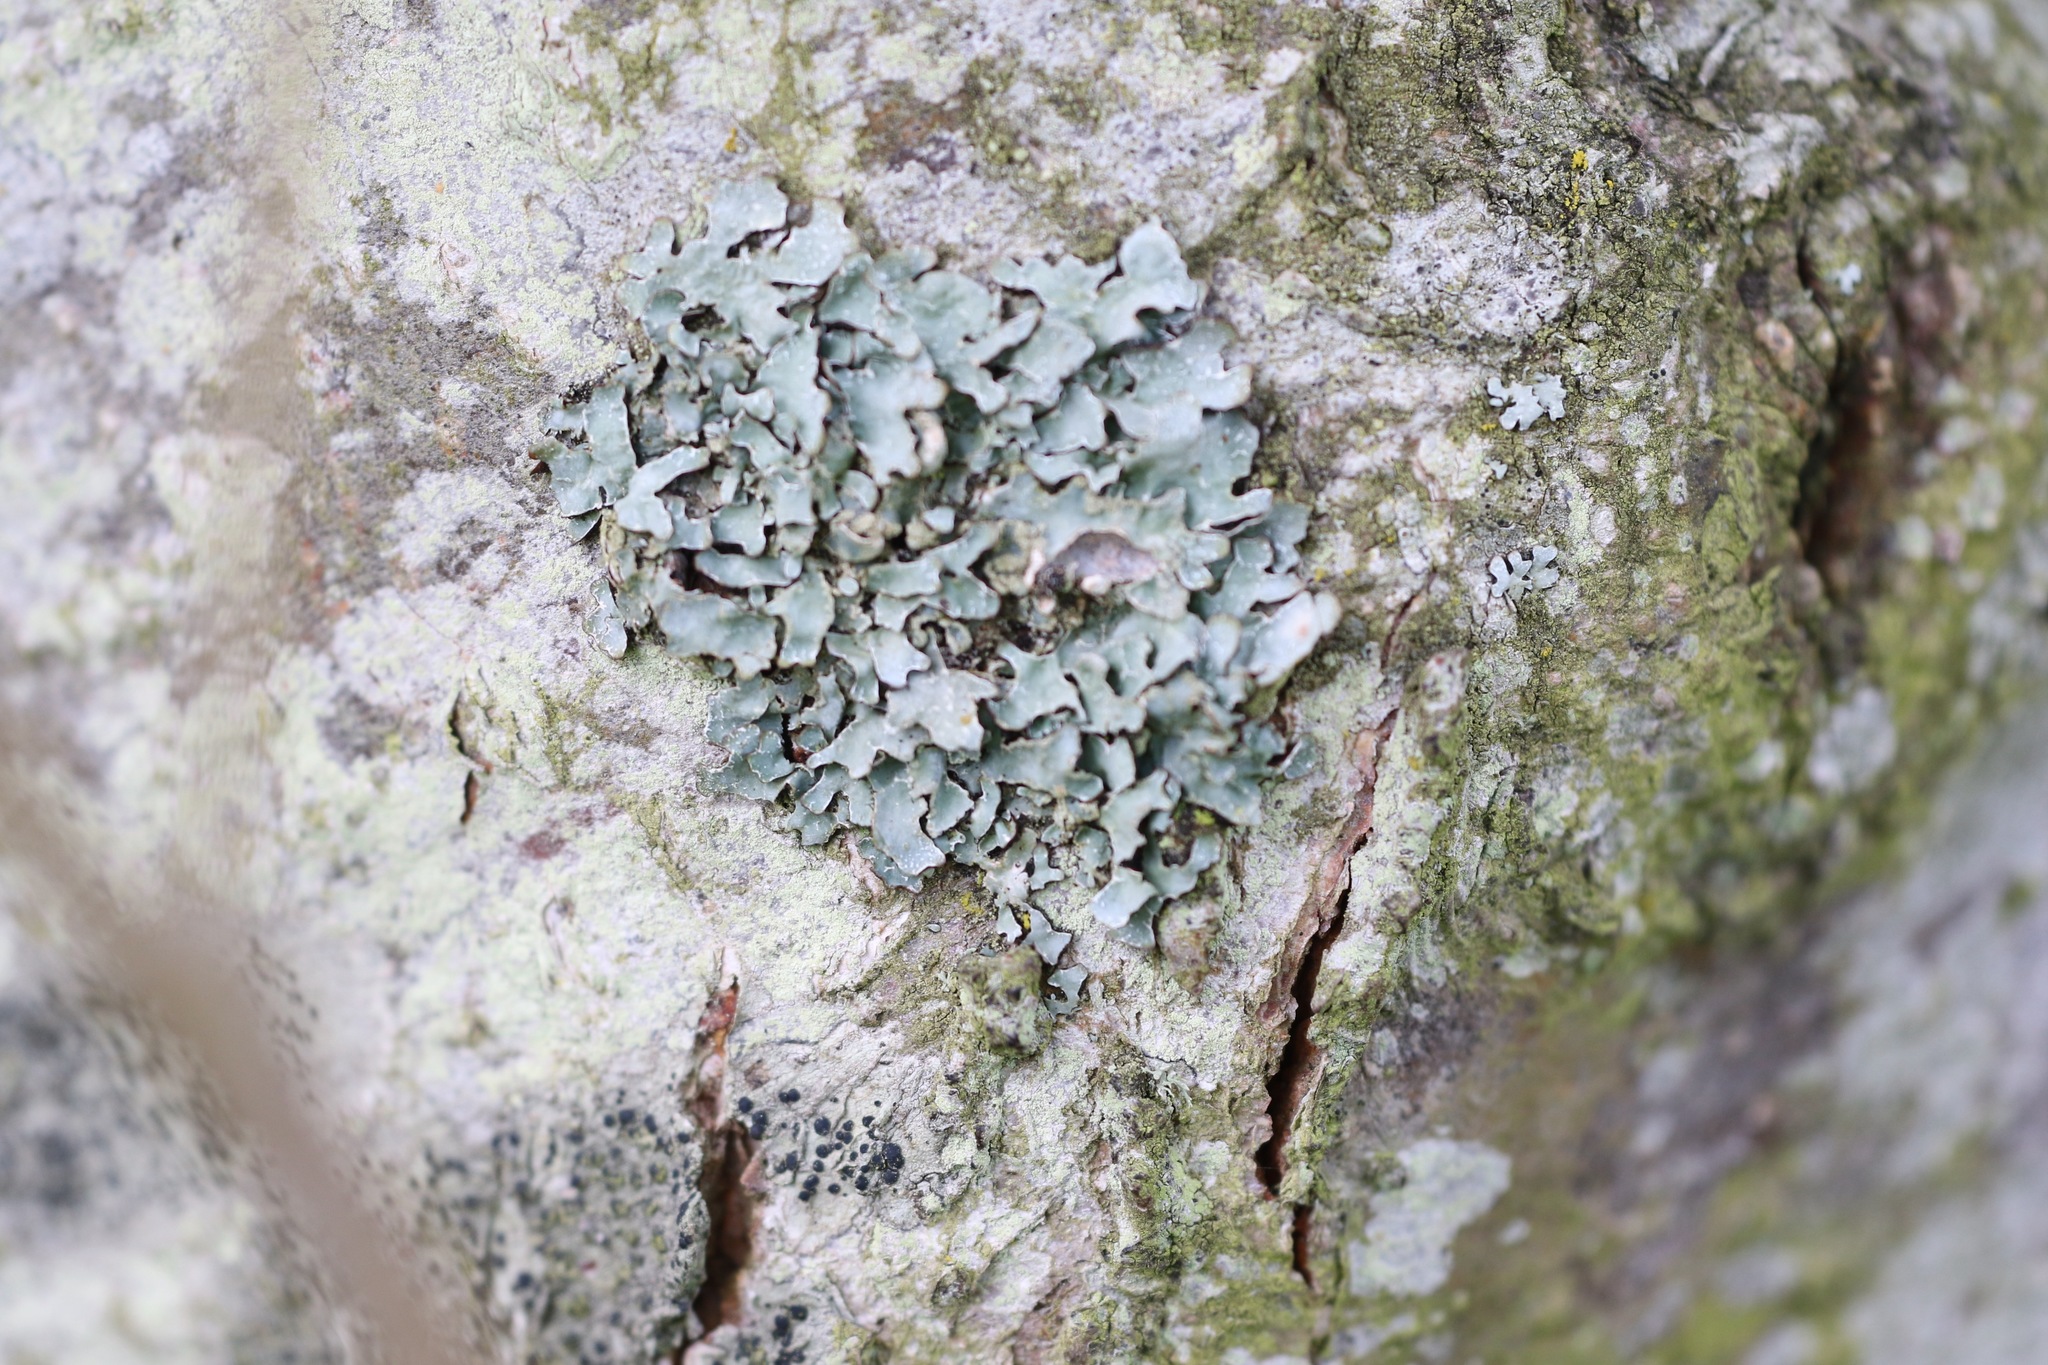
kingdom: Fungi
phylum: Ascomycota
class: Lecanoromycetes
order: Lecanorales
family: Parmeliaceae
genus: Parmelia
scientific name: Parmelia sulcata
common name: Netted shield lichen
